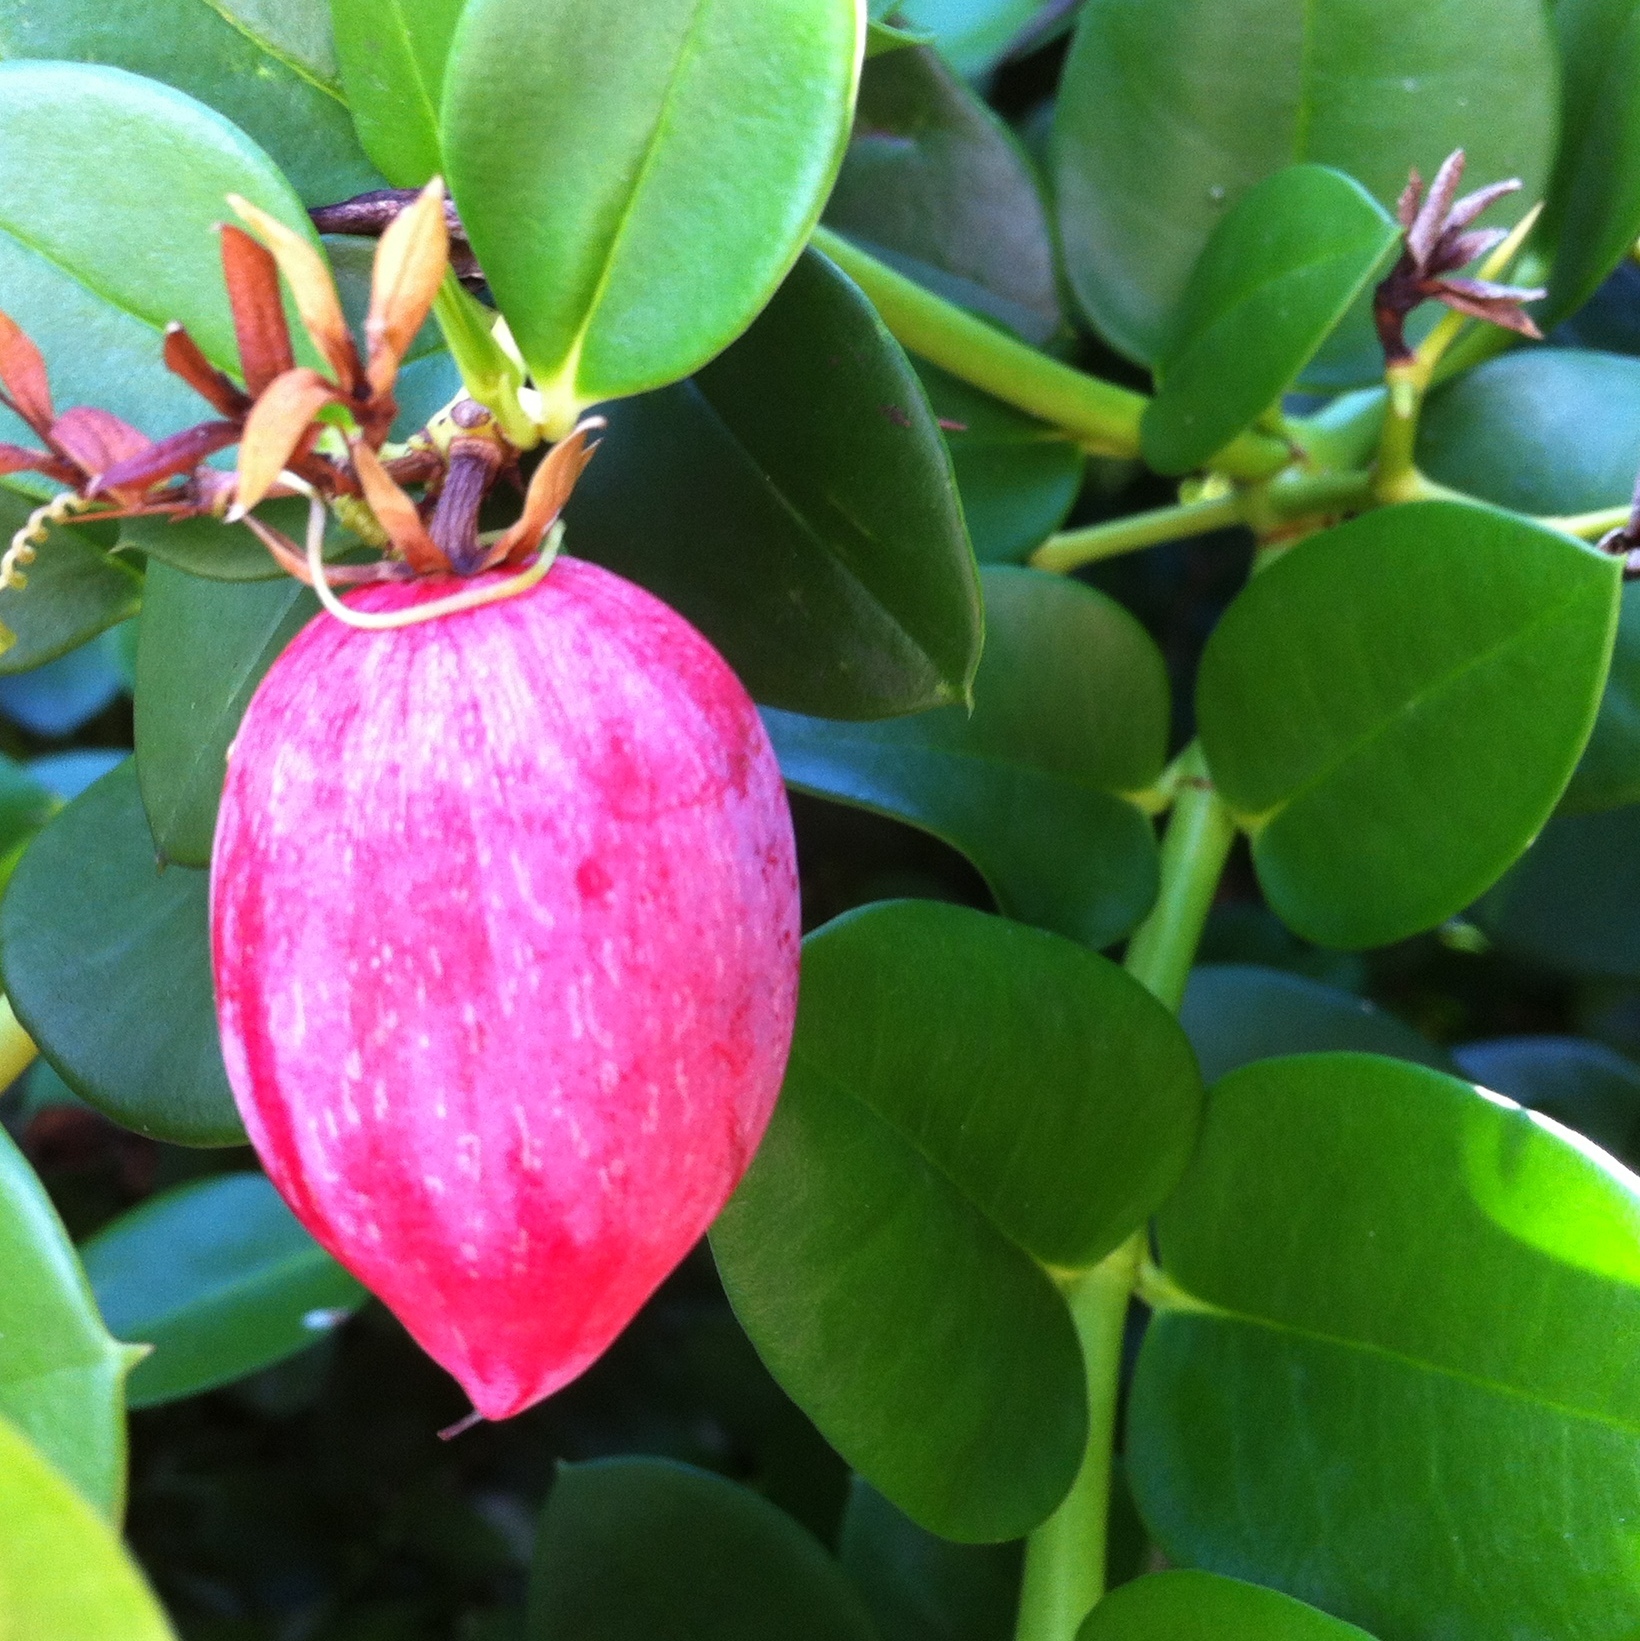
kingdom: Plantae
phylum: Tracheophyta
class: Magnoliopsida
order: Gentianales
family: Apocynaceae
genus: Carissa
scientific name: Carissa macrocarpa
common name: Natal plum
